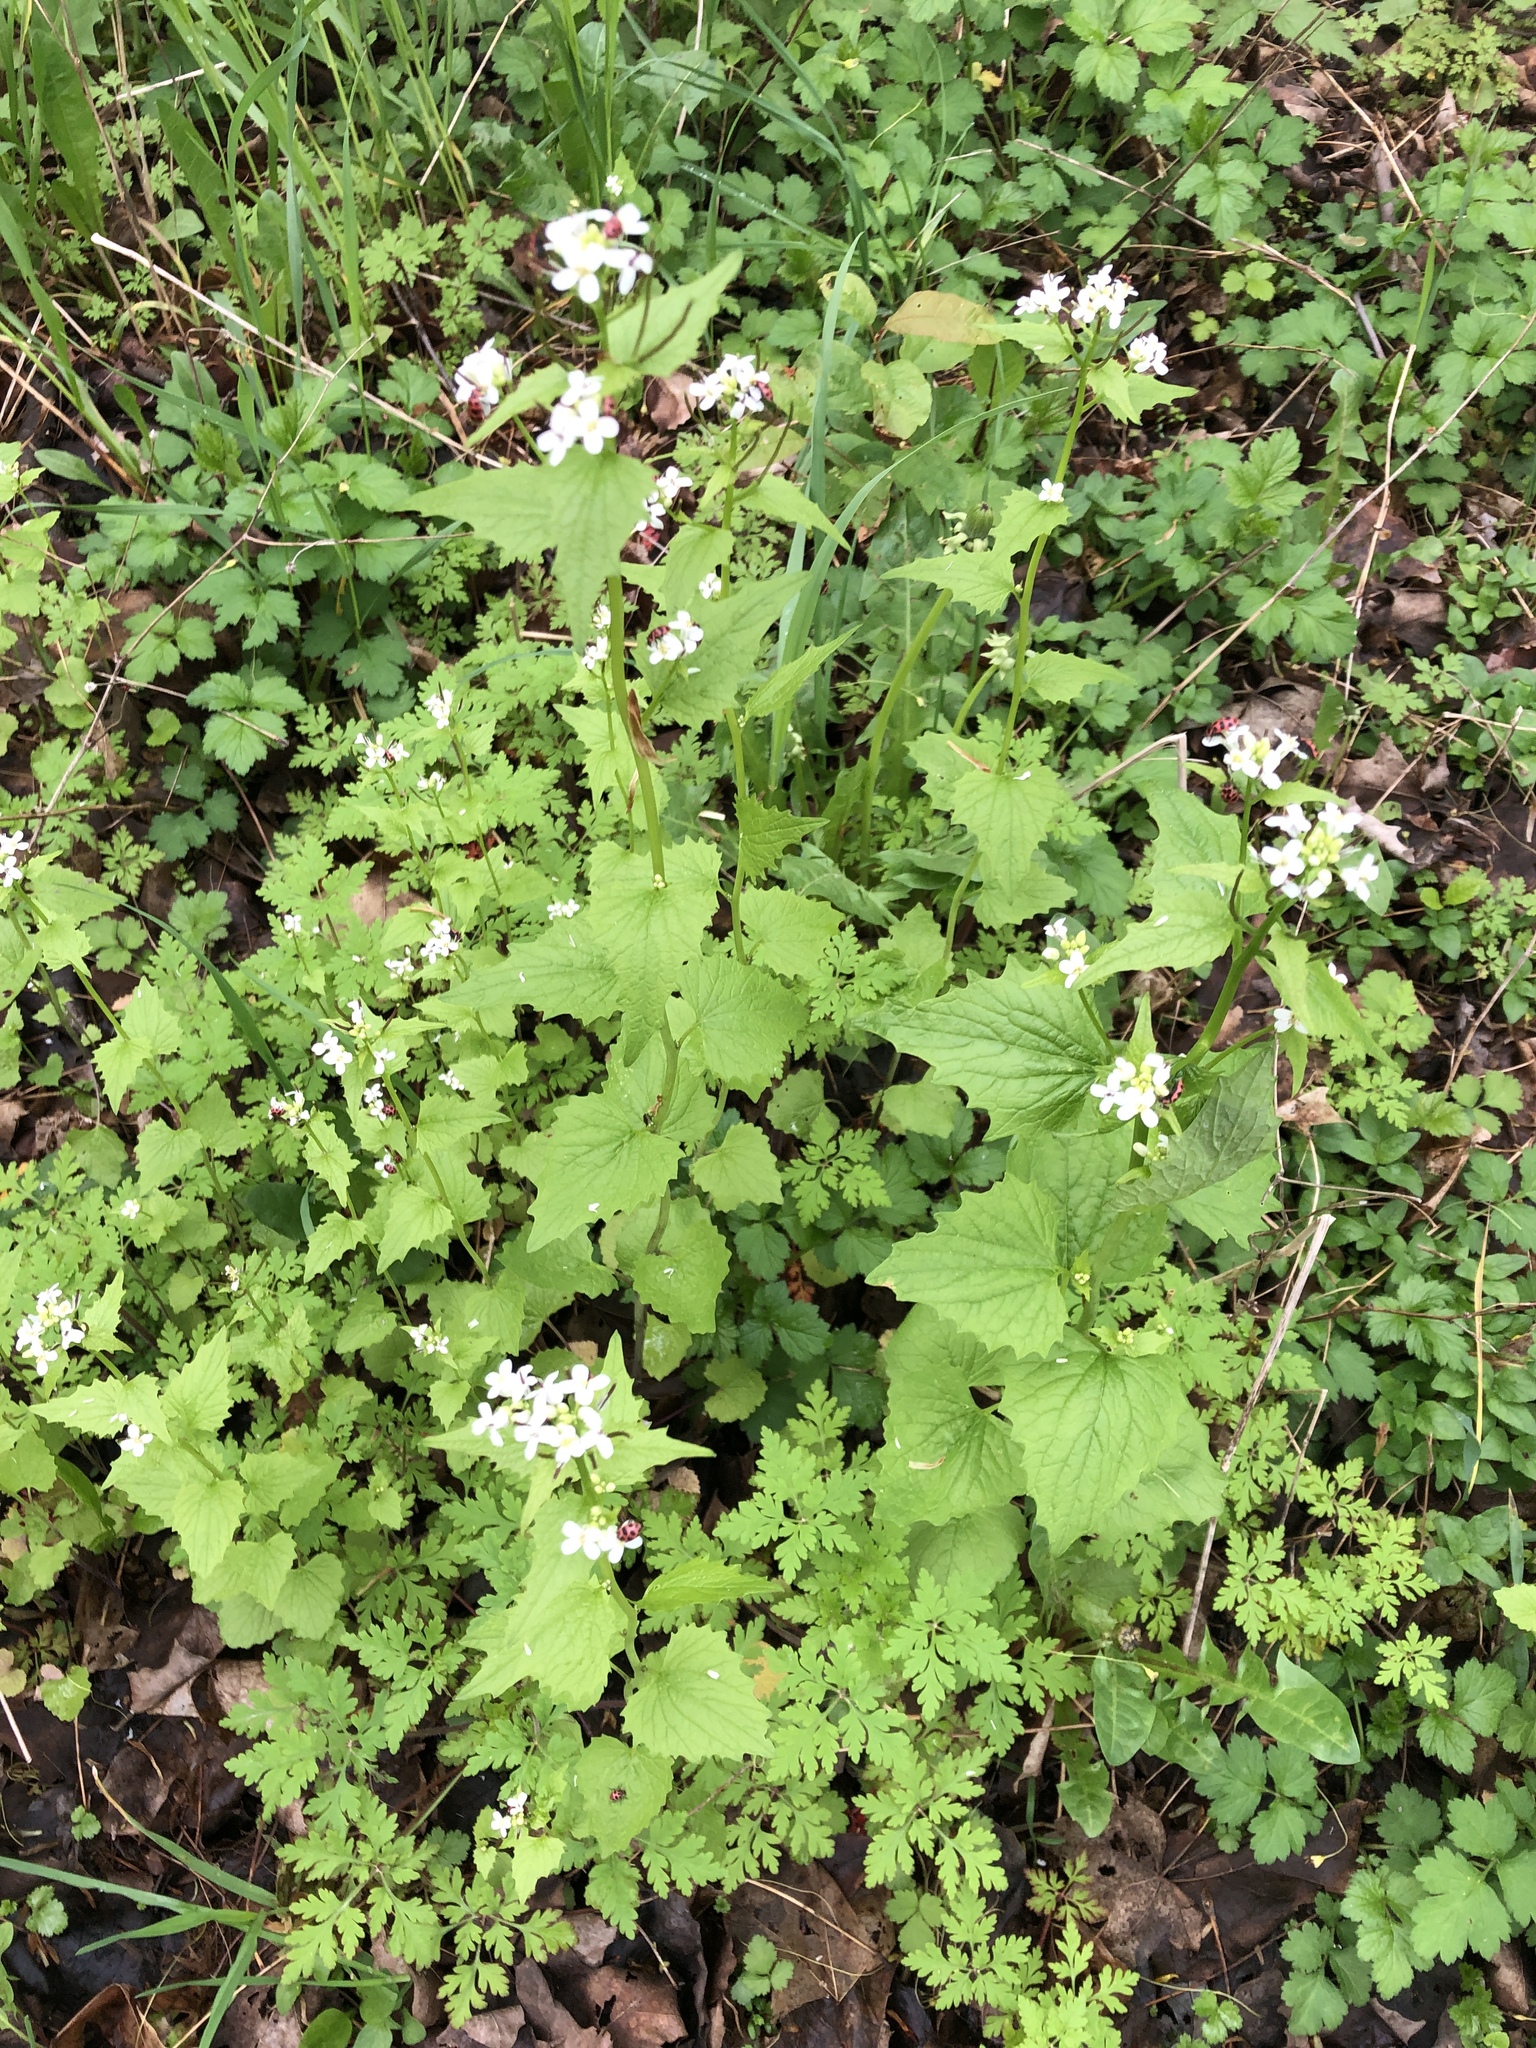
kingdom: Plantae
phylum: Tracheophyta
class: Magnoliopsida
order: Brassicales
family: Brassicaceae
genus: Alliaria
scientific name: Alliaria petiolata
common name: Garlic mustard
